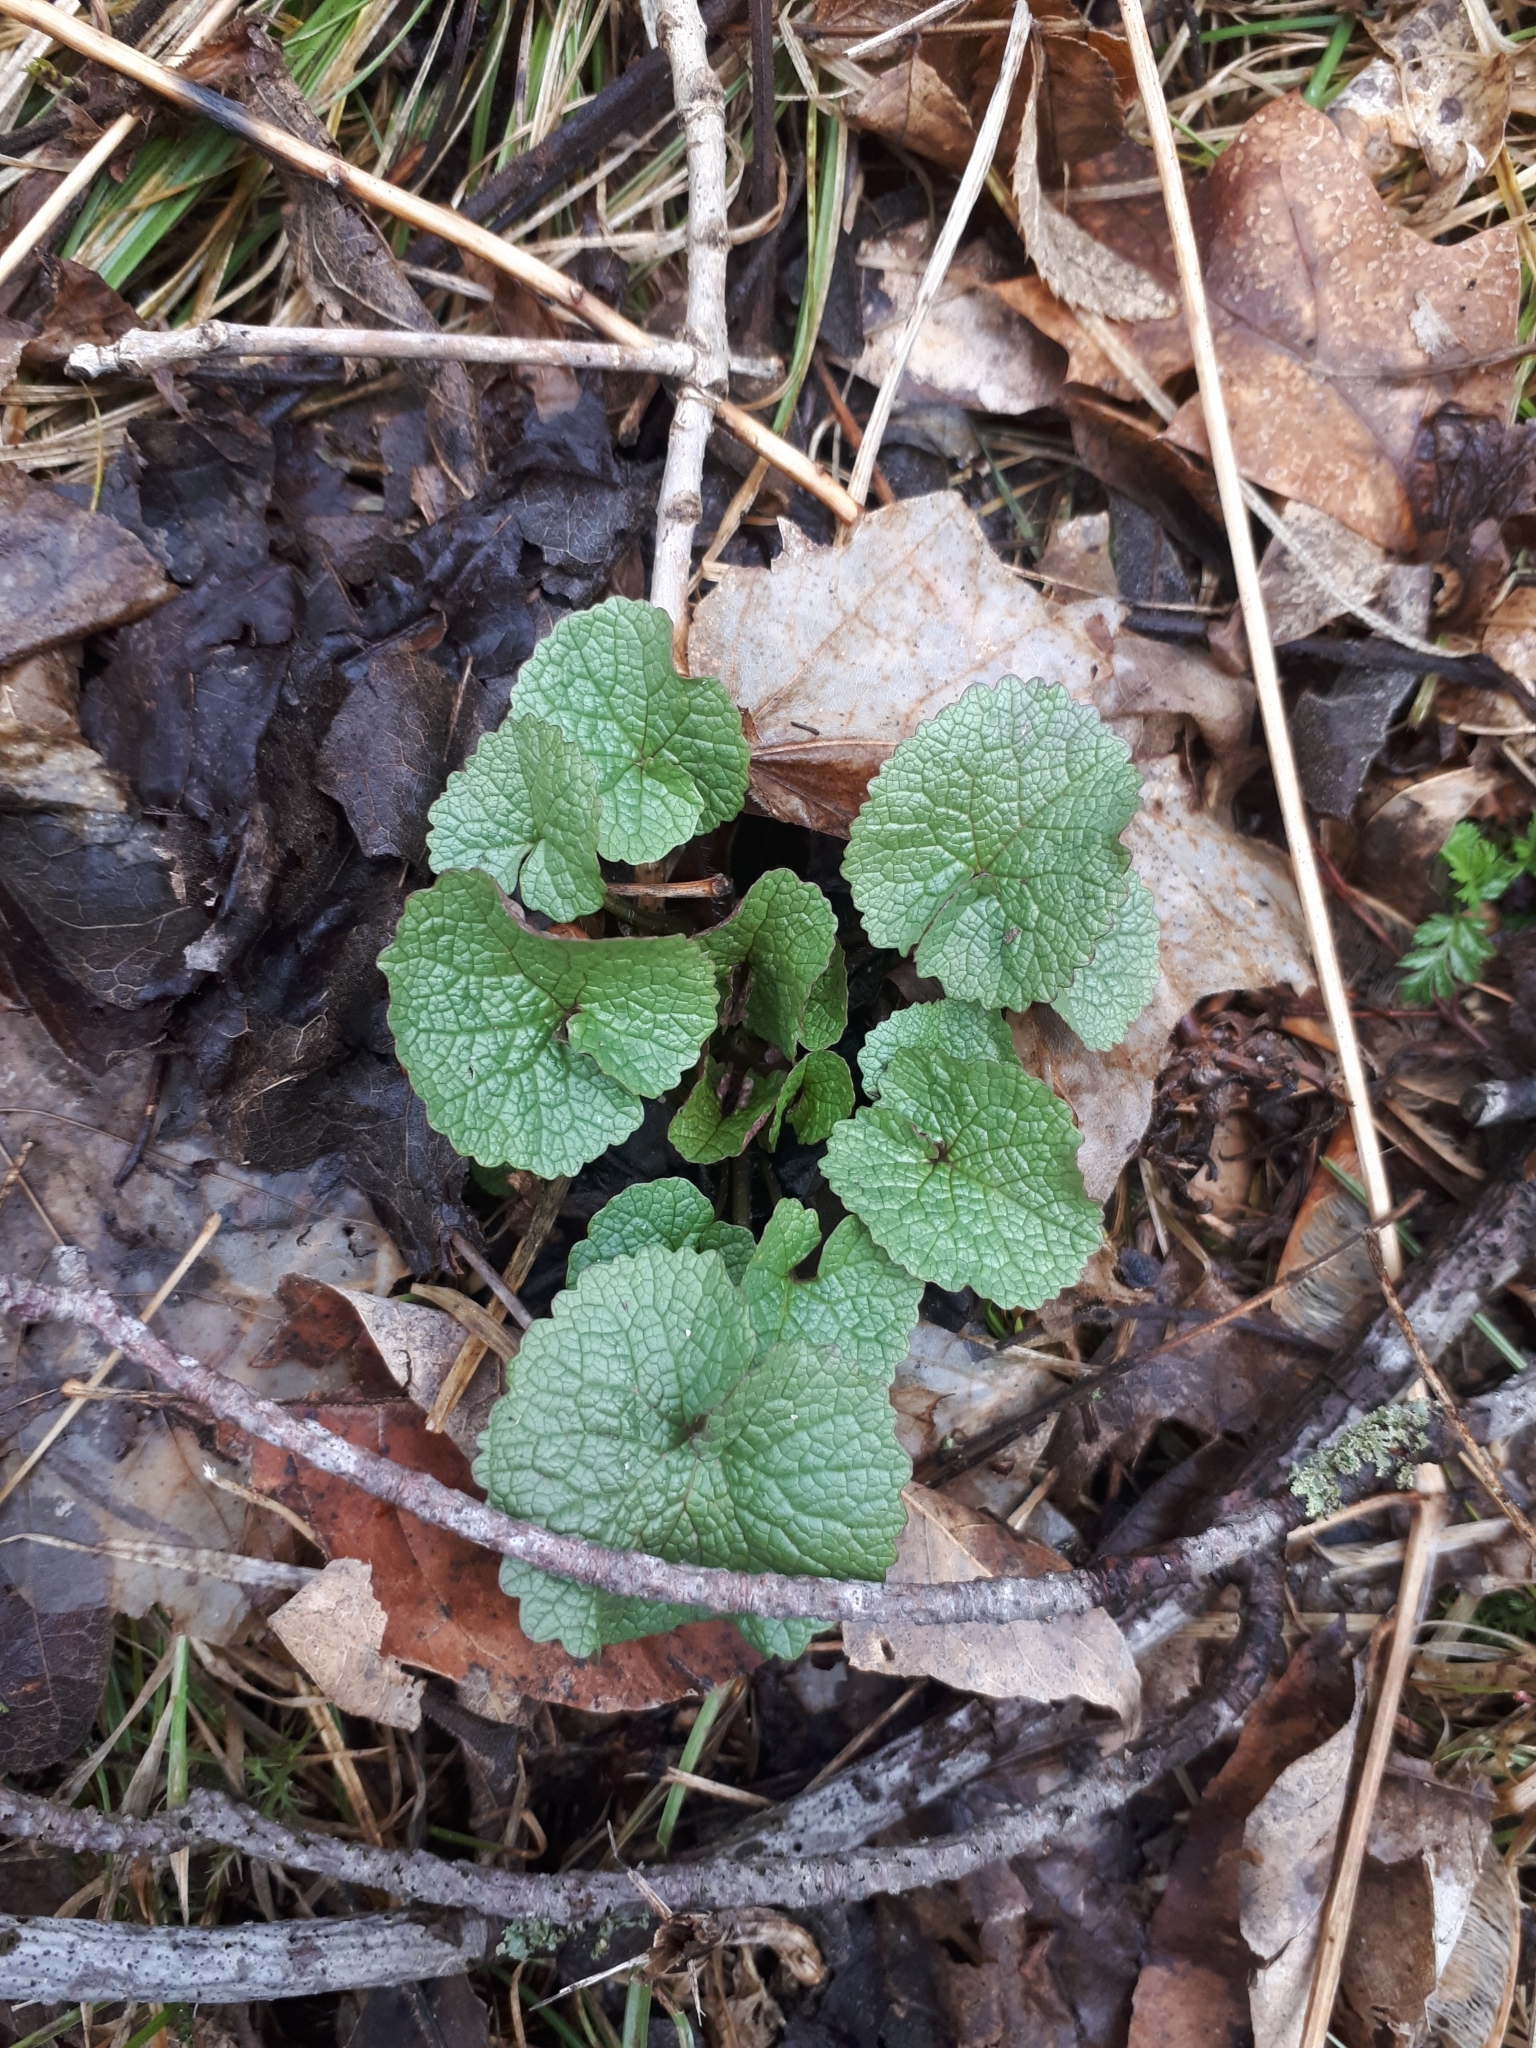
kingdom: Plantae
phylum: Tracheophyta
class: Magnoliopsida
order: Brassicales
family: Brassicaceae
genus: Alliaria
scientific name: Alliaria petiolata
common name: Garlic mustard
